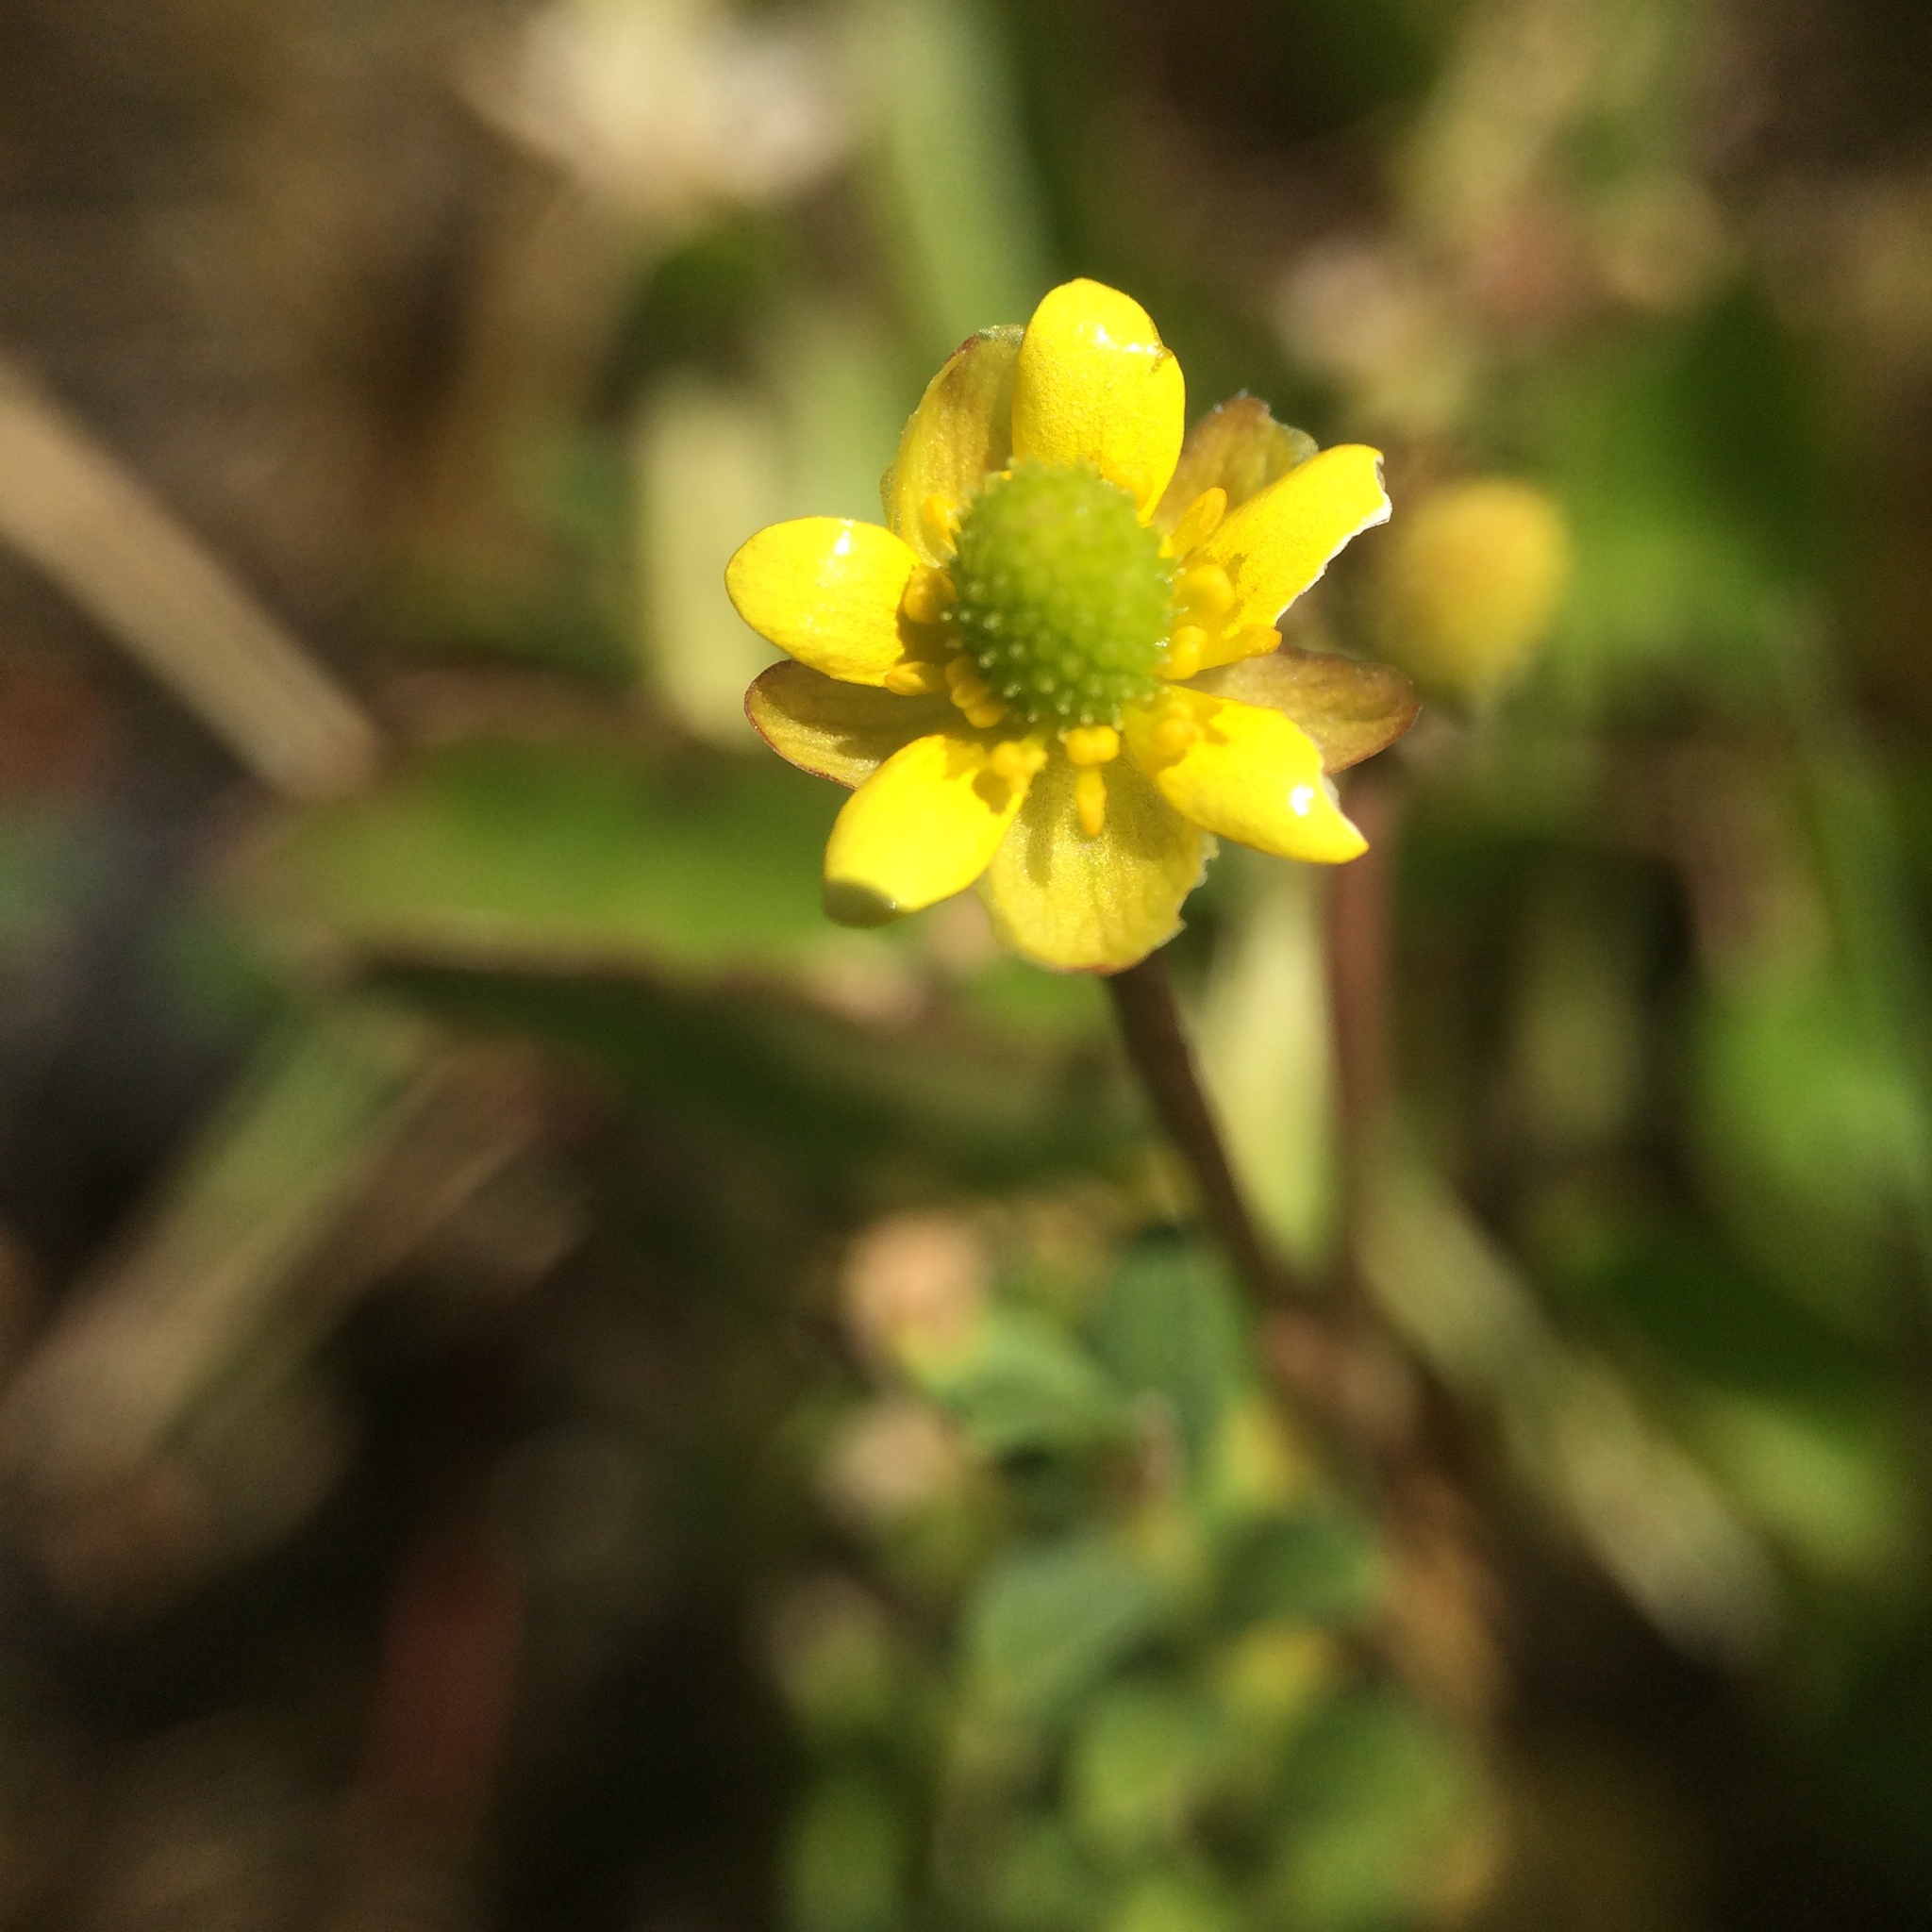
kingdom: Plantae
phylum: Tracheophyta
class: Magnoliopsida
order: Ranunculales
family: Ranunculaceae
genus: Halerpestes
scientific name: Halerpestes cymbalaria
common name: Seaside crowfoot
